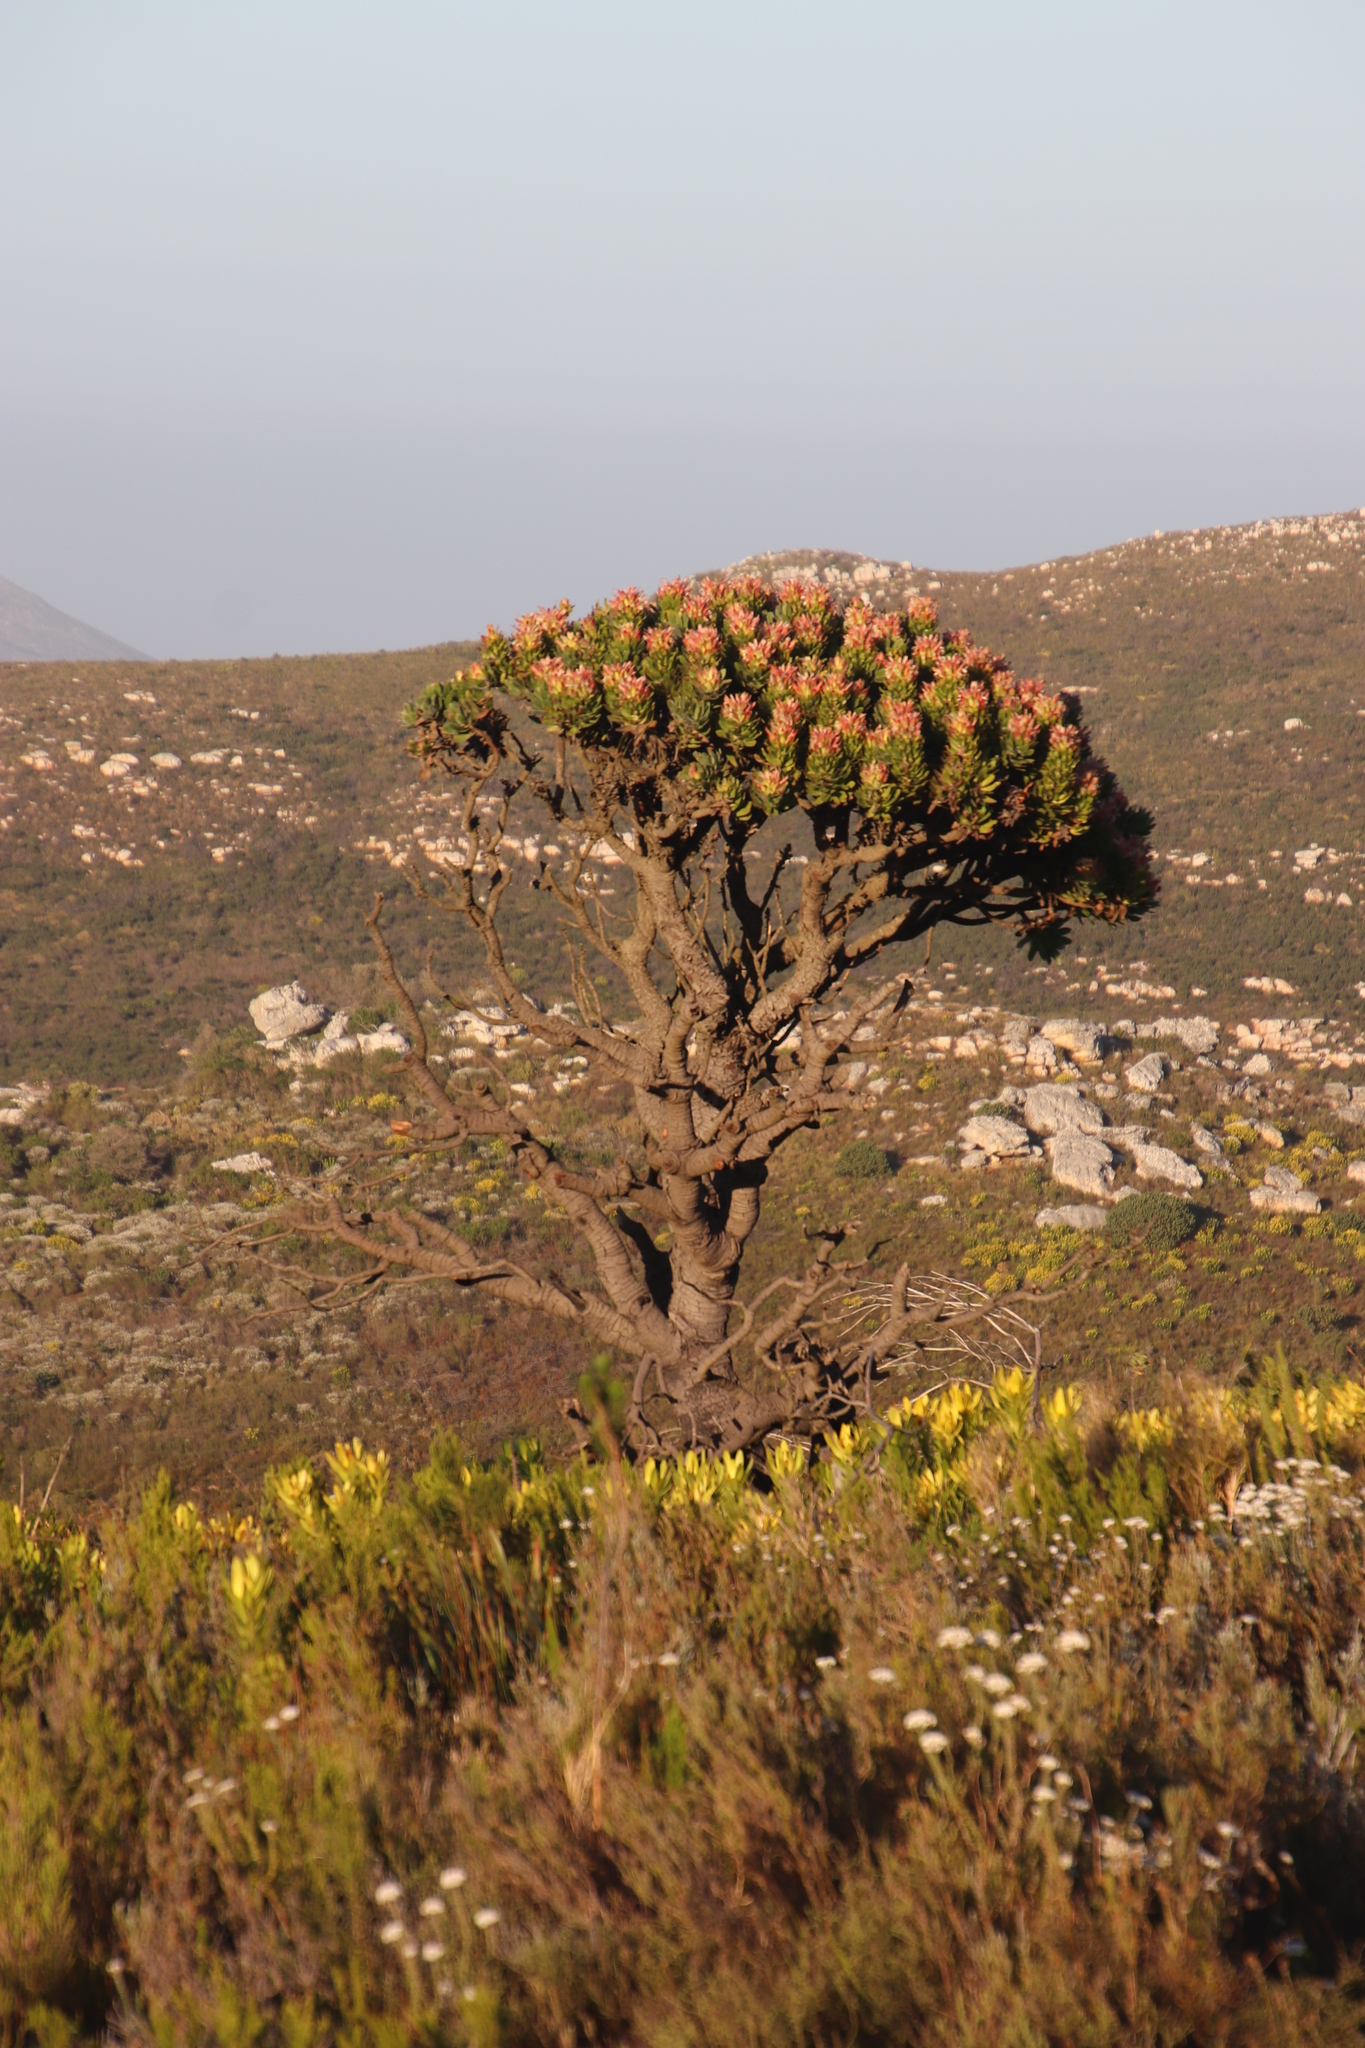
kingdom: Plantae
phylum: Tracheophyta
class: Magnoliopsida
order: Proteales
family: Proteaceae
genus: Mimetes
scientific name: Mimetes fimbriifolius
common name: Fringed bottlebrush
